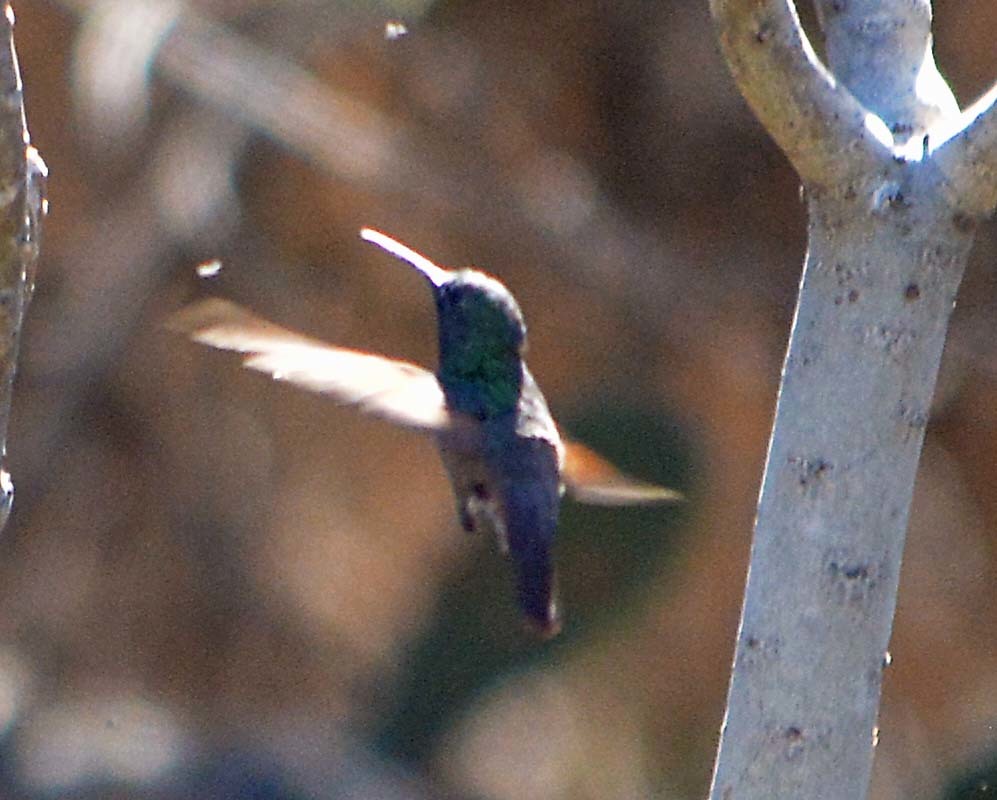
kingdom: Animalia
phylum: Chordata
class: Aves
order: Apodiformes
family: Trochilidae
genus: Saucerottia
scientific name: Saucerottia beryllina
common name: Berylline hummingbird
